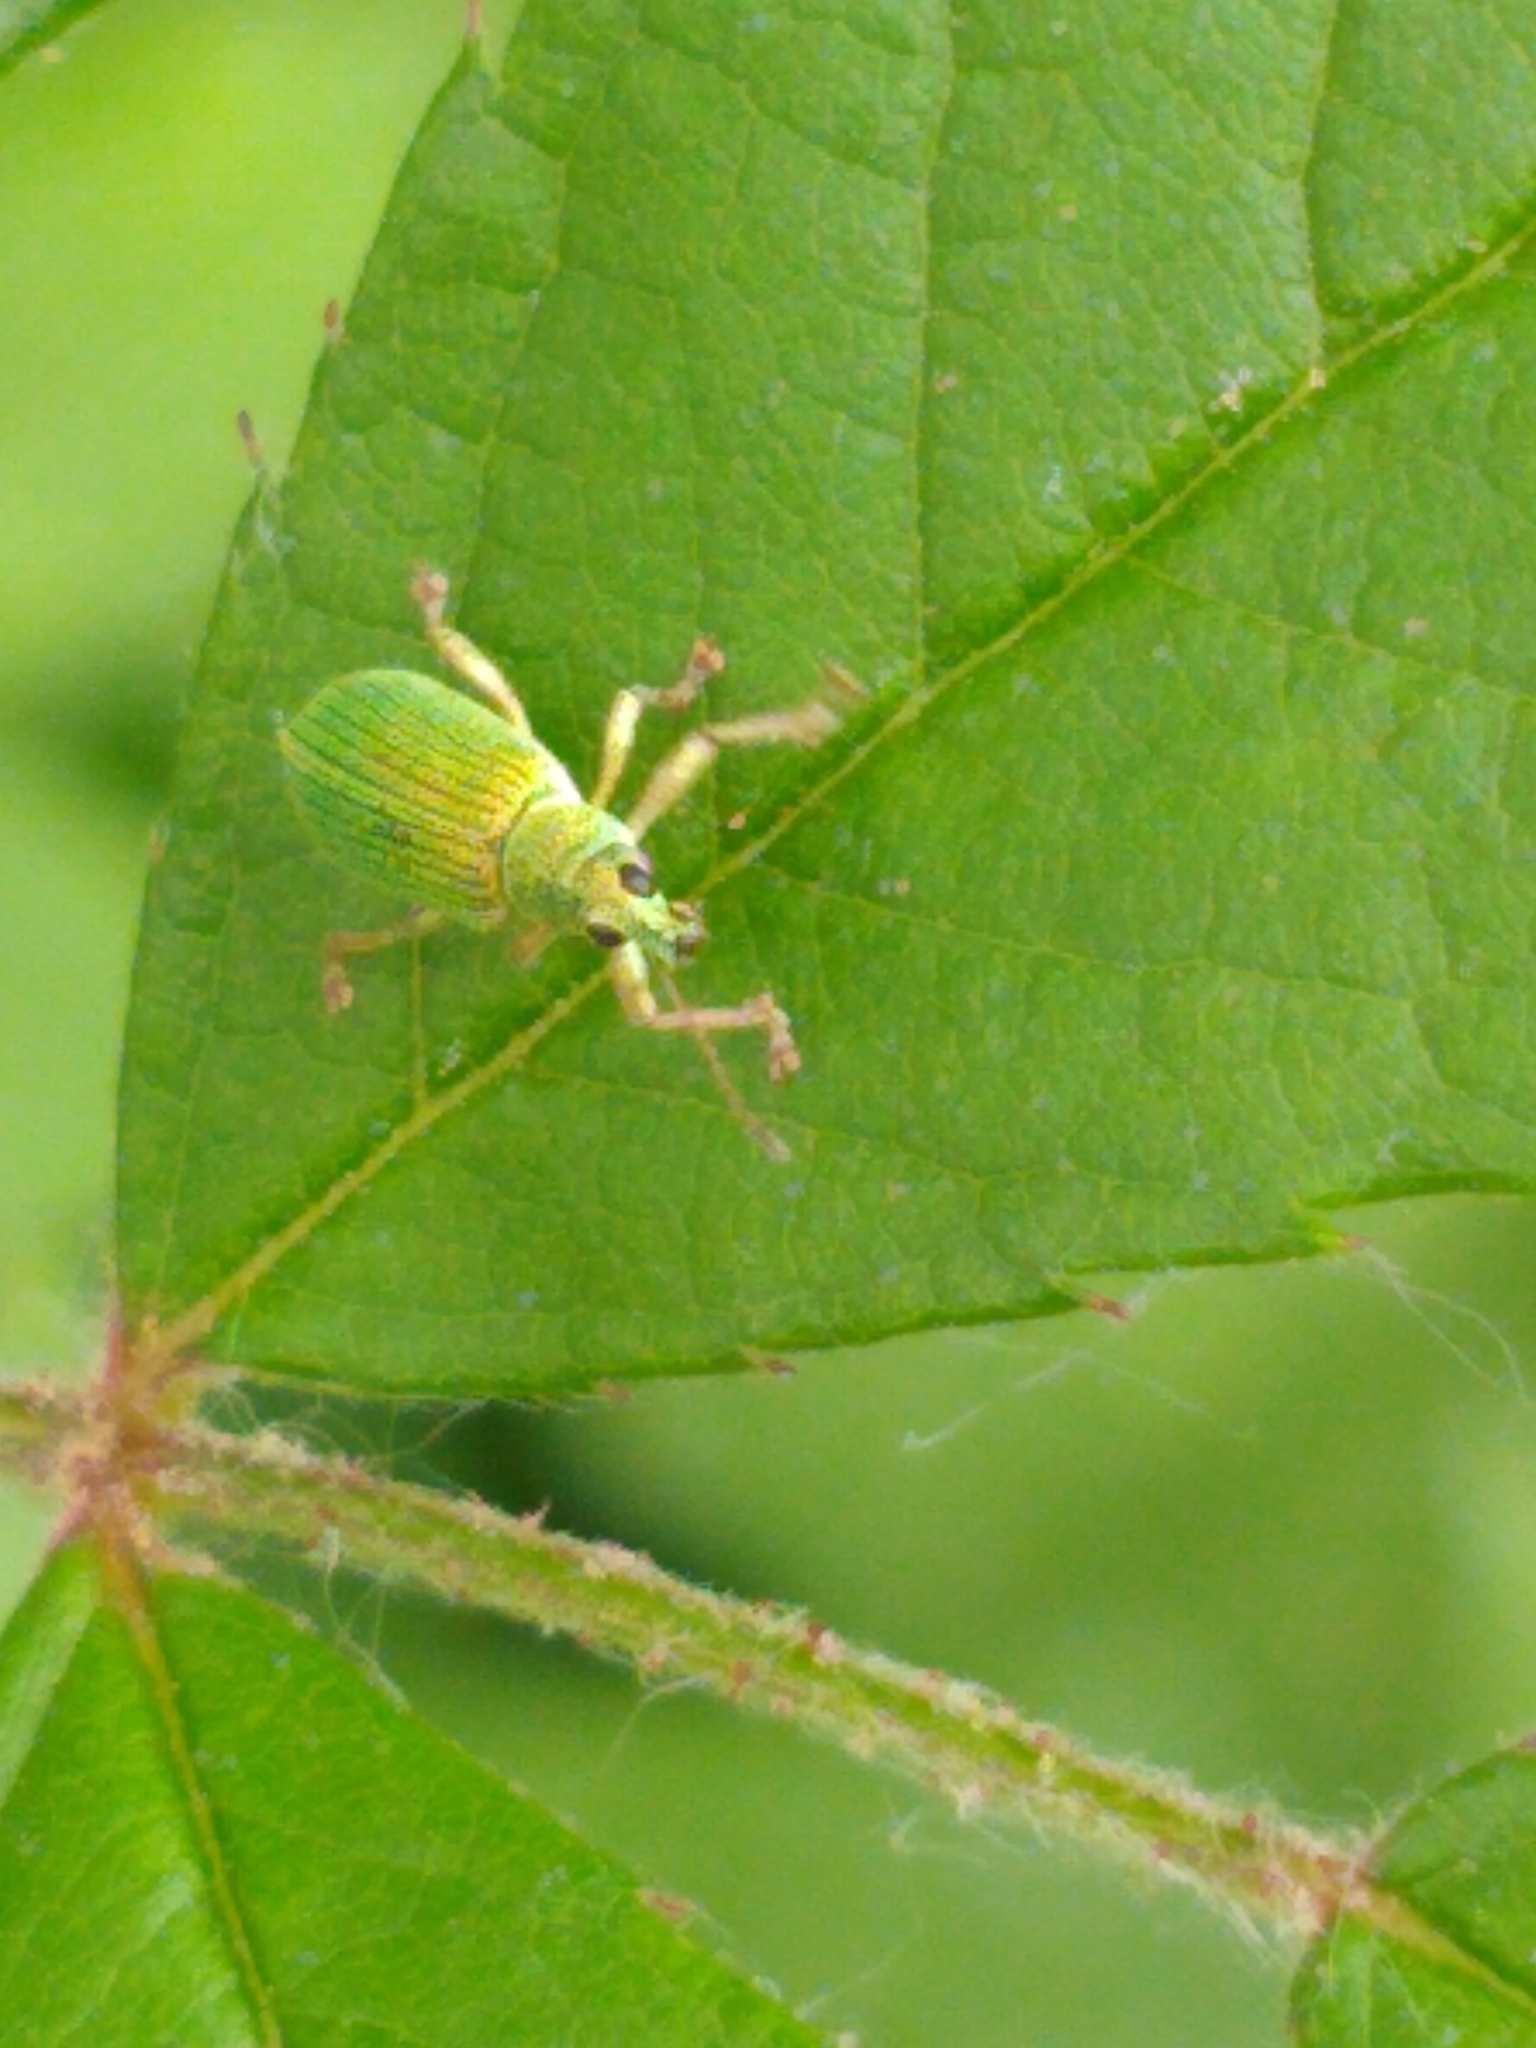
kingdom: Animalia
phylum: Arthropoda
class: Insecta
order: Coleoptera
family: Curculionidae
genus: Polydrusus
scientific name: Polydrusus formosus
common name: Weevil
